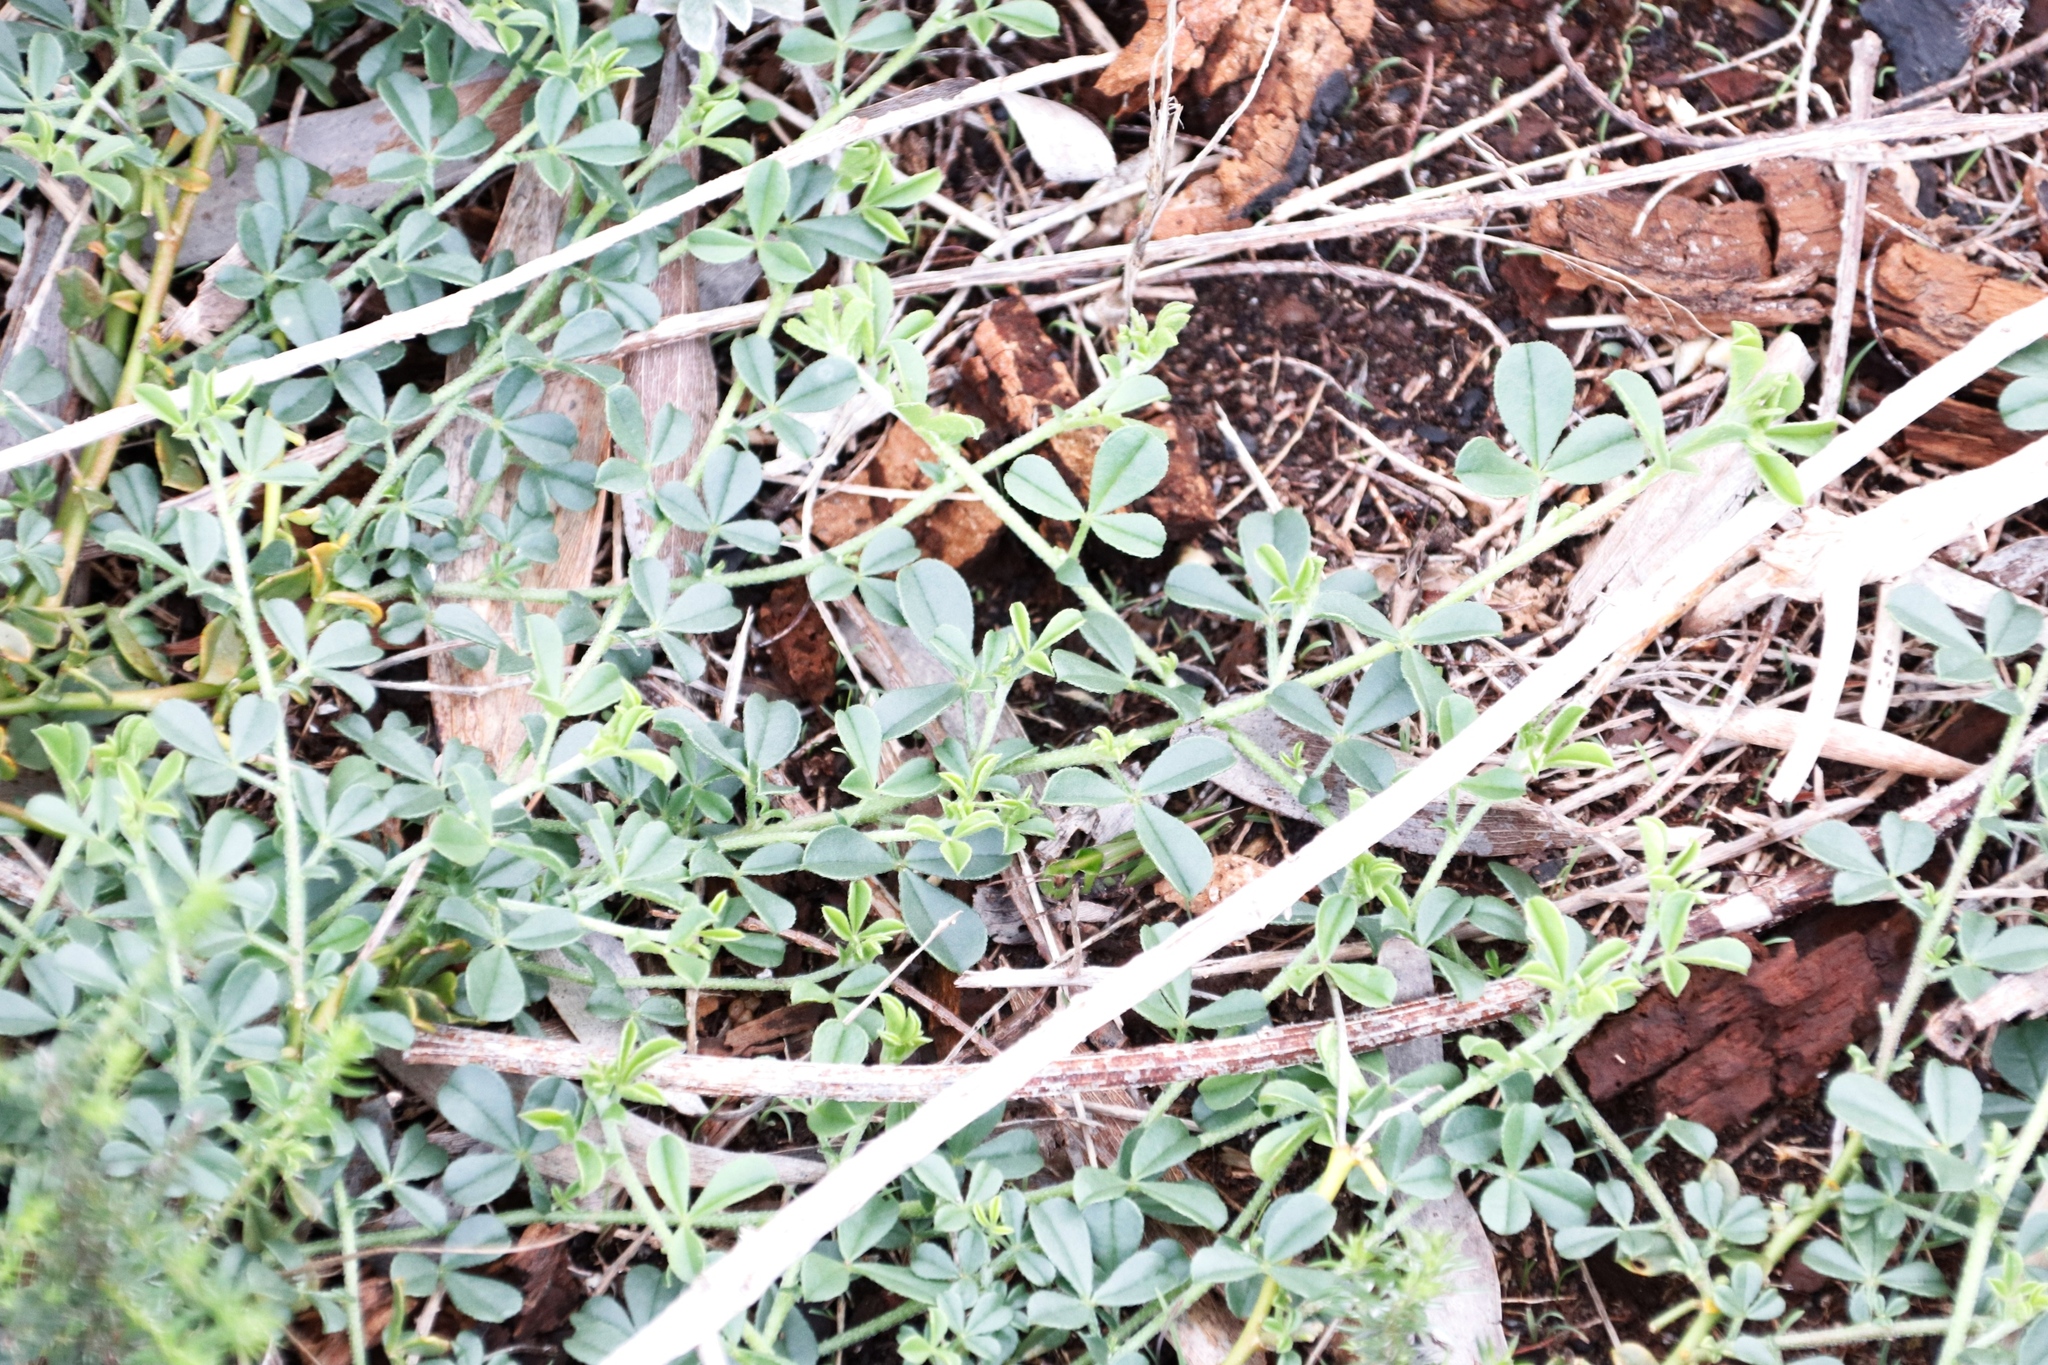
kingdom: Plantae
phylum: Tracheophyta
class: Magnoliopsida
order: Fabales
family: Fabaceae
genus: Psoralea
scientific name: Psoralea
